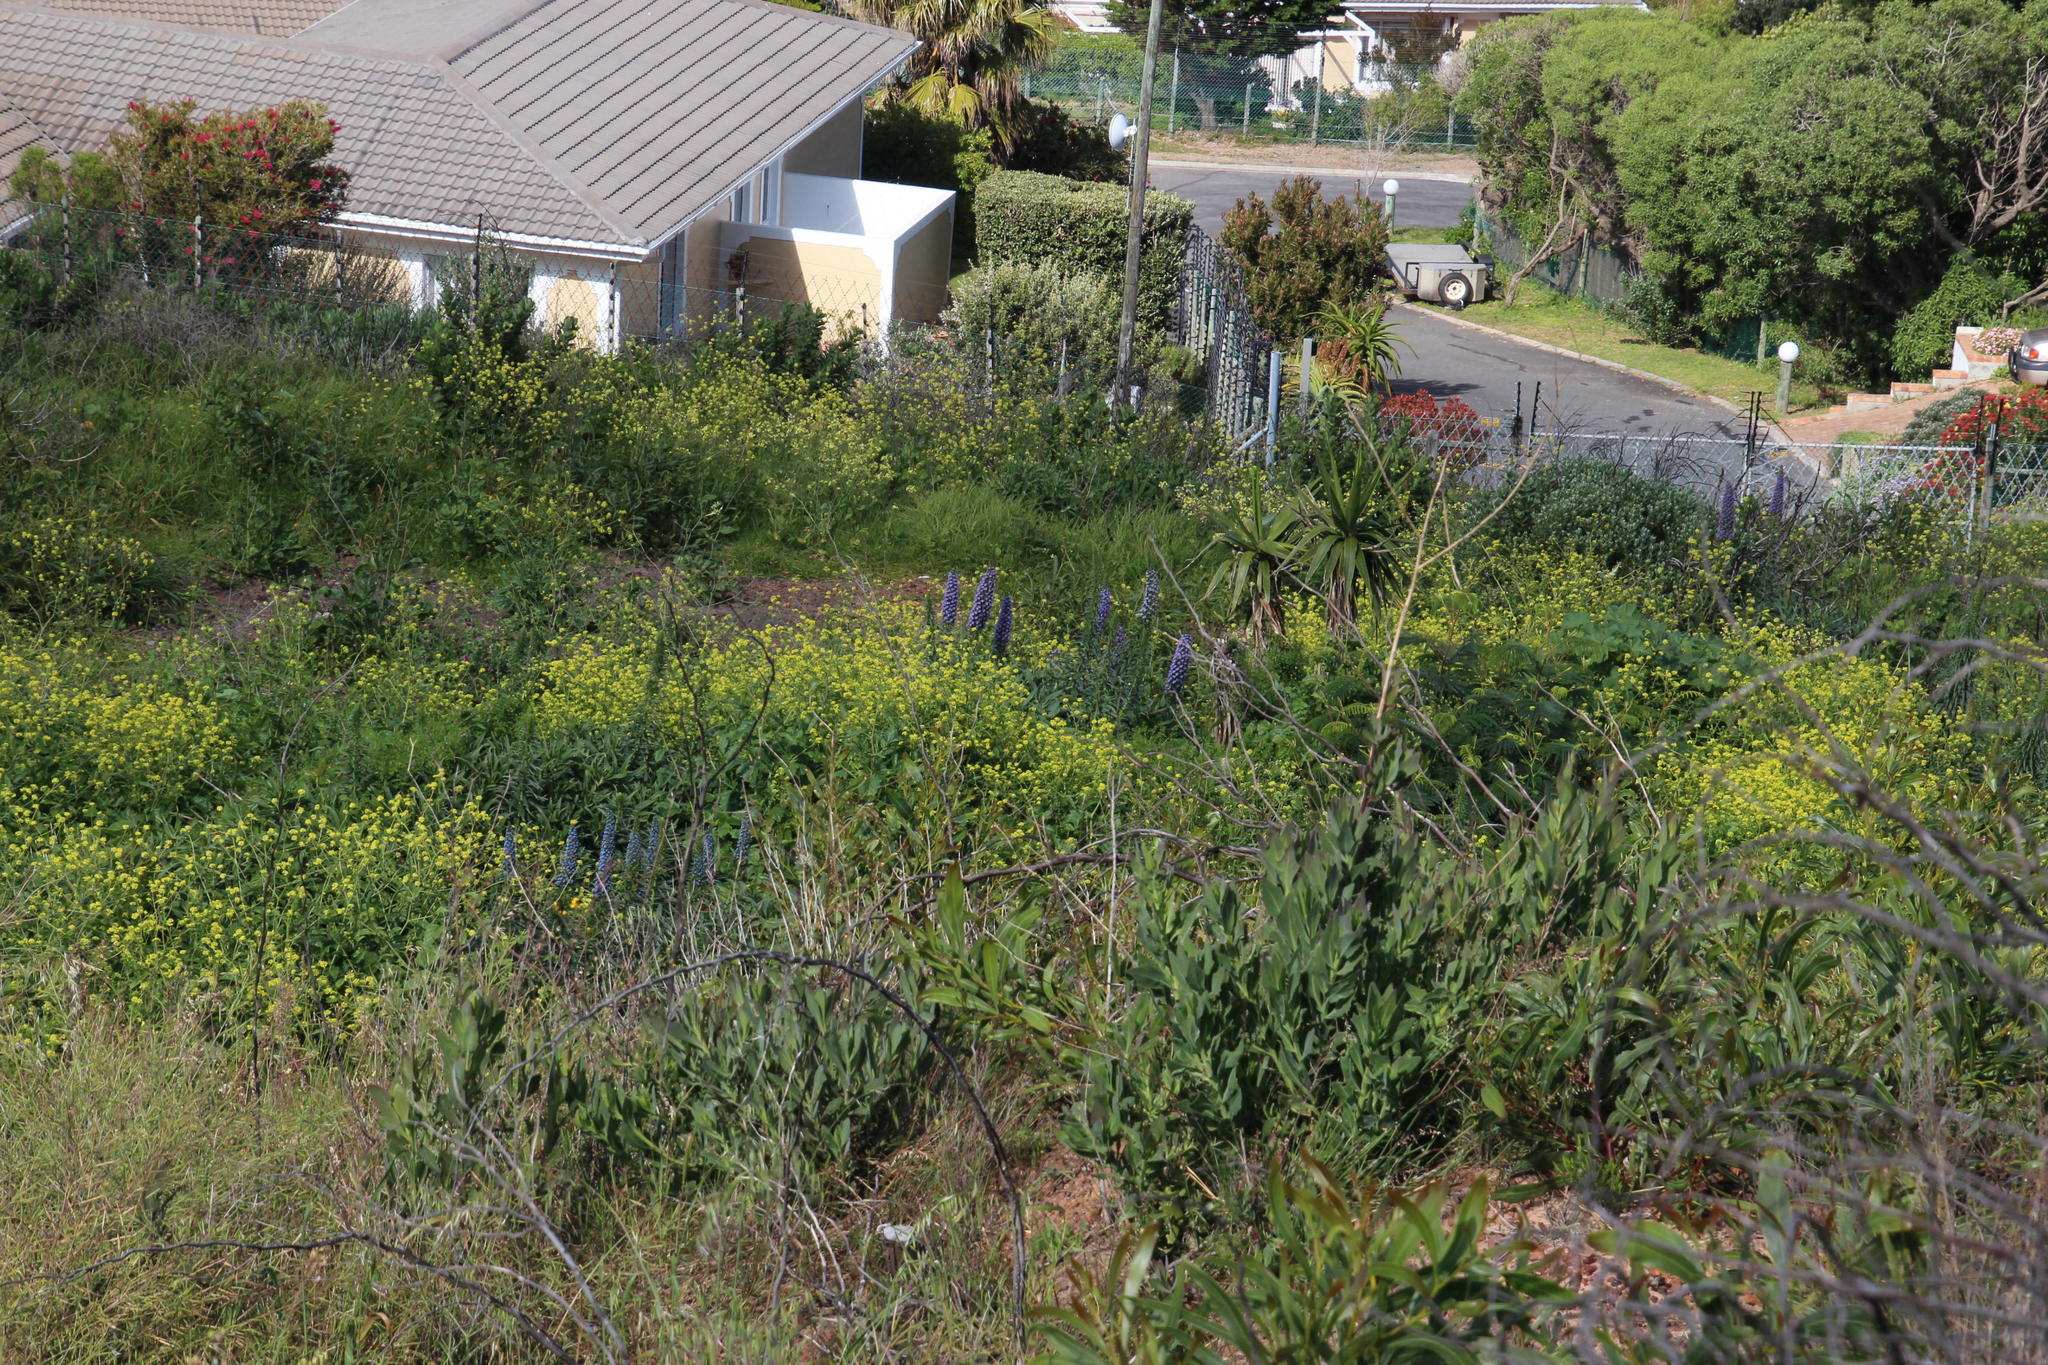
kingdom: Plantae
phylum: Tracheophyta
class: Magnoliopsida
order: Boraginales
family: Boraginaceae
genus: Echium
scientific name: Echium candicans
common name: Pride of madeira
